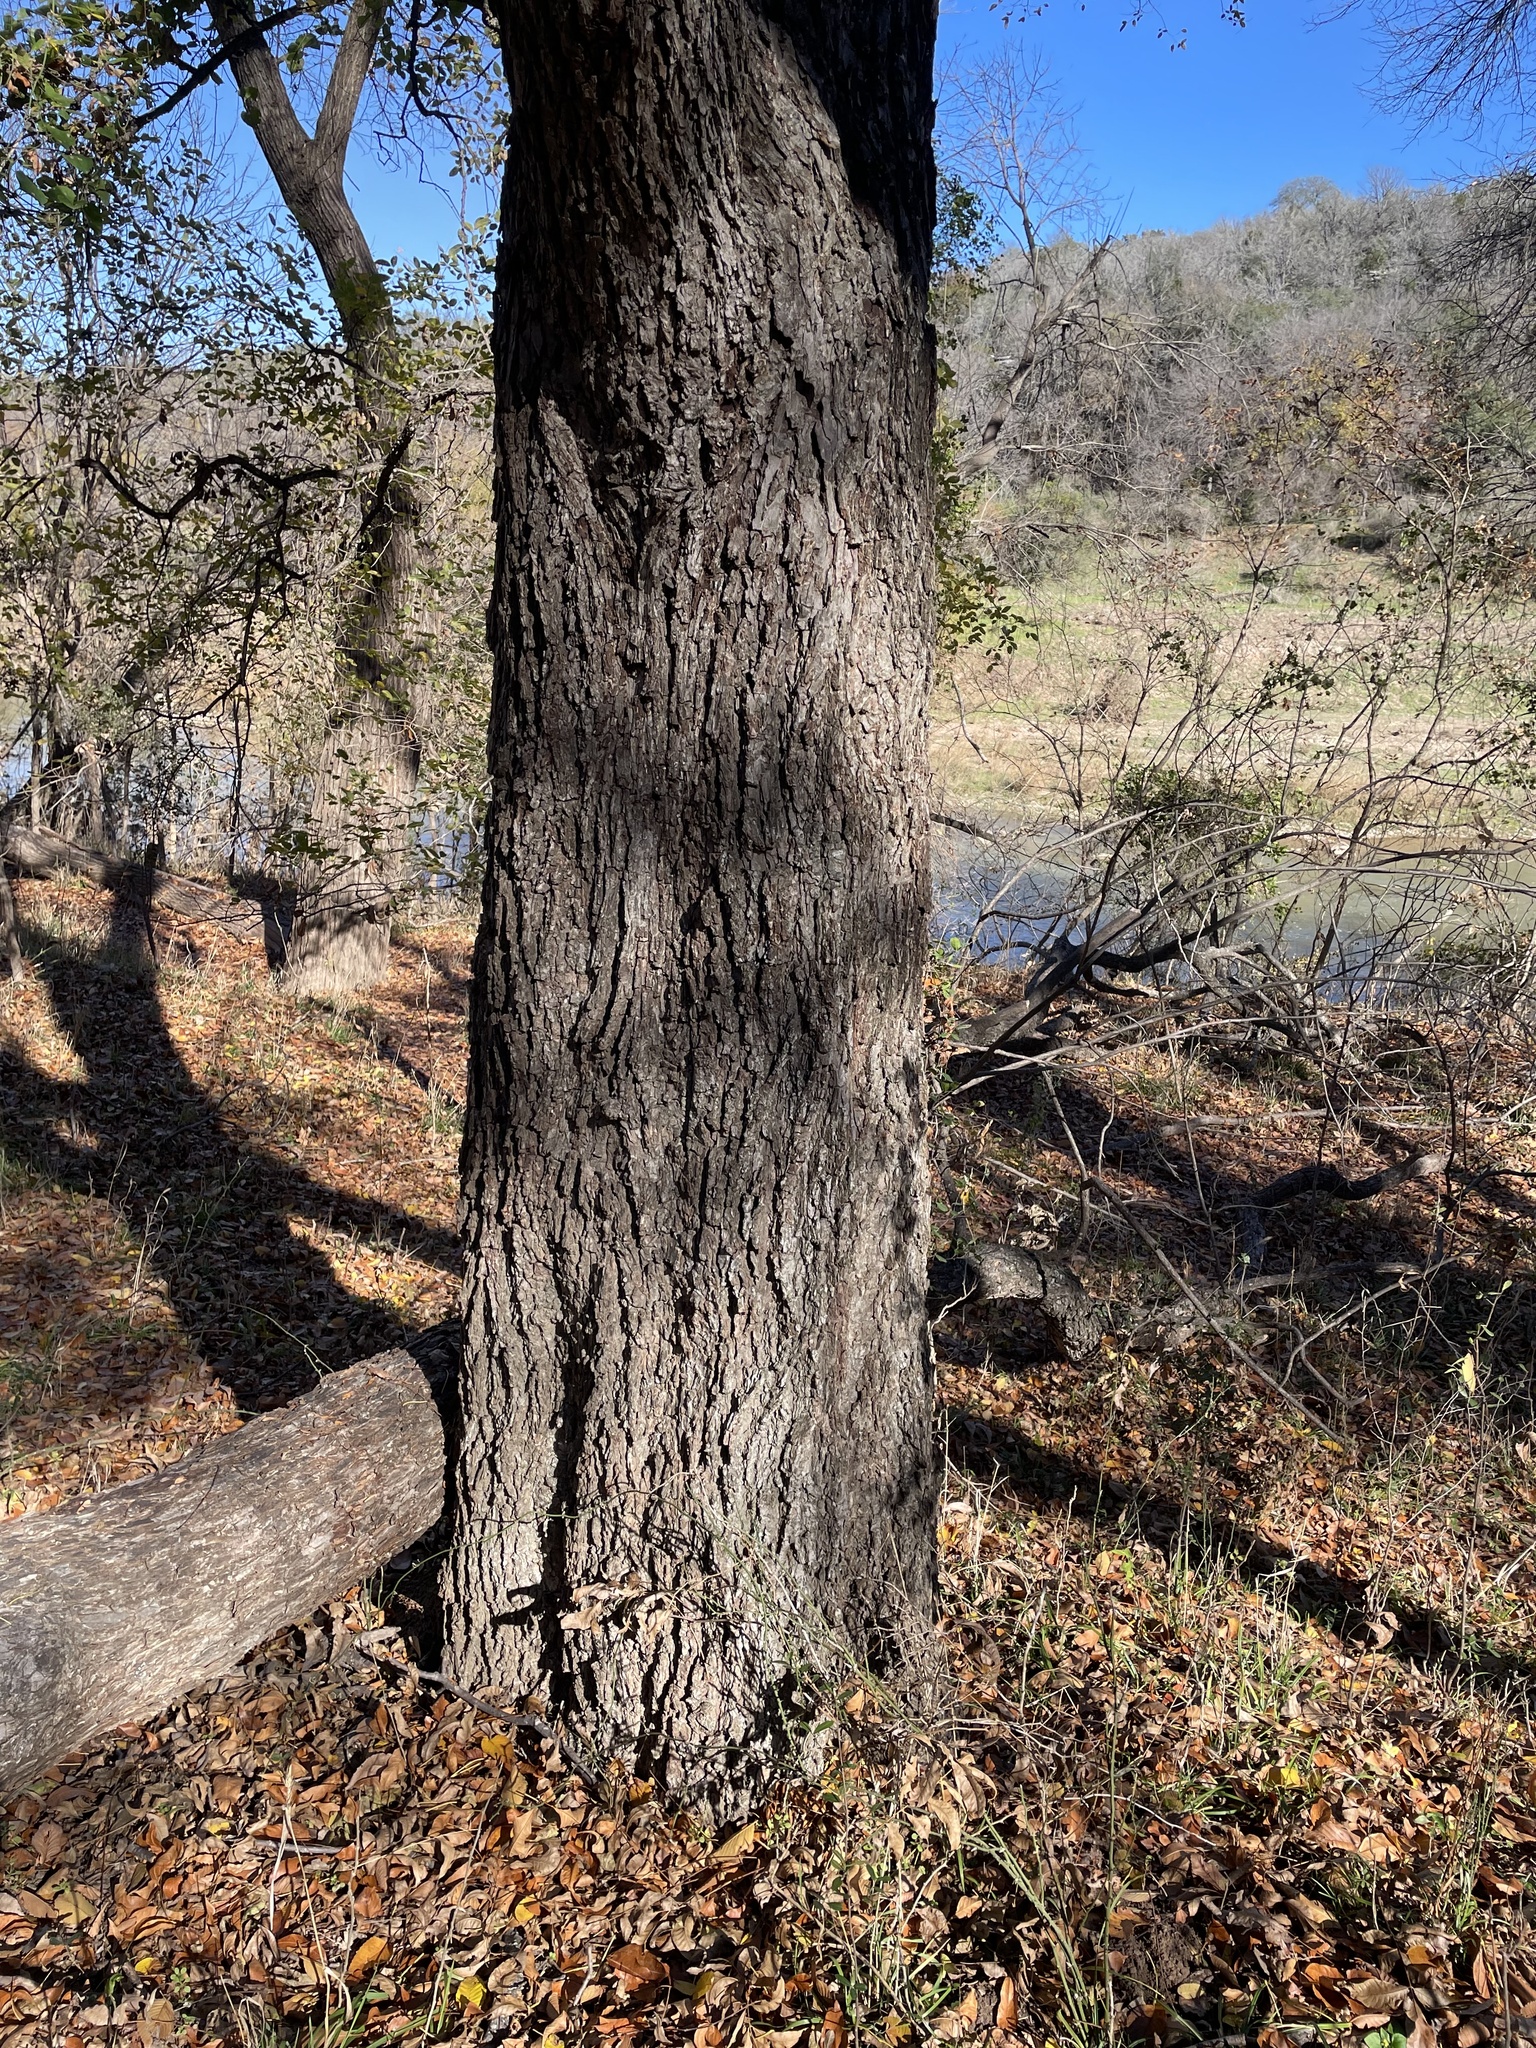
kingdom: Plantae
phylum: Tracheophyta
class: Magnoliopsida
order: Fagales
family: Juglandaceae
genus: Carya
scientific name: Carya illinoinensis
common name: Pecan
